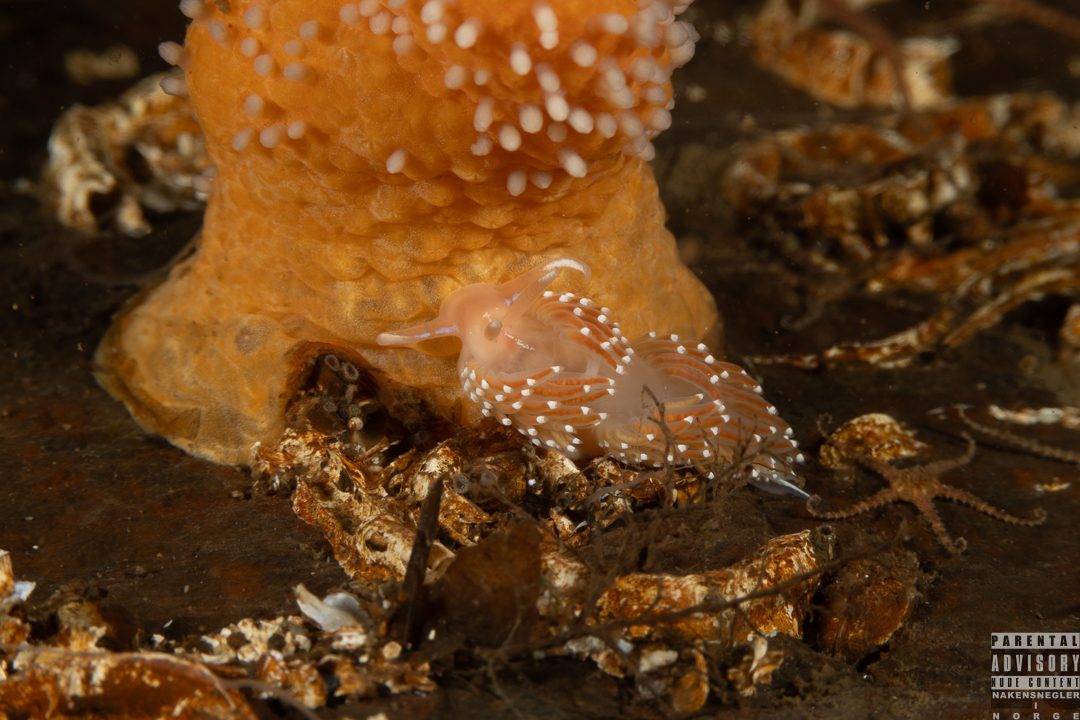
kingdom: Animalia
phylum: Mollusca
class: Gastropoda
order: Nudibranchia
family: Facelinidae
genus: Facelina
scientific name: Facelina bostoniensis
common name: Boston facelina
